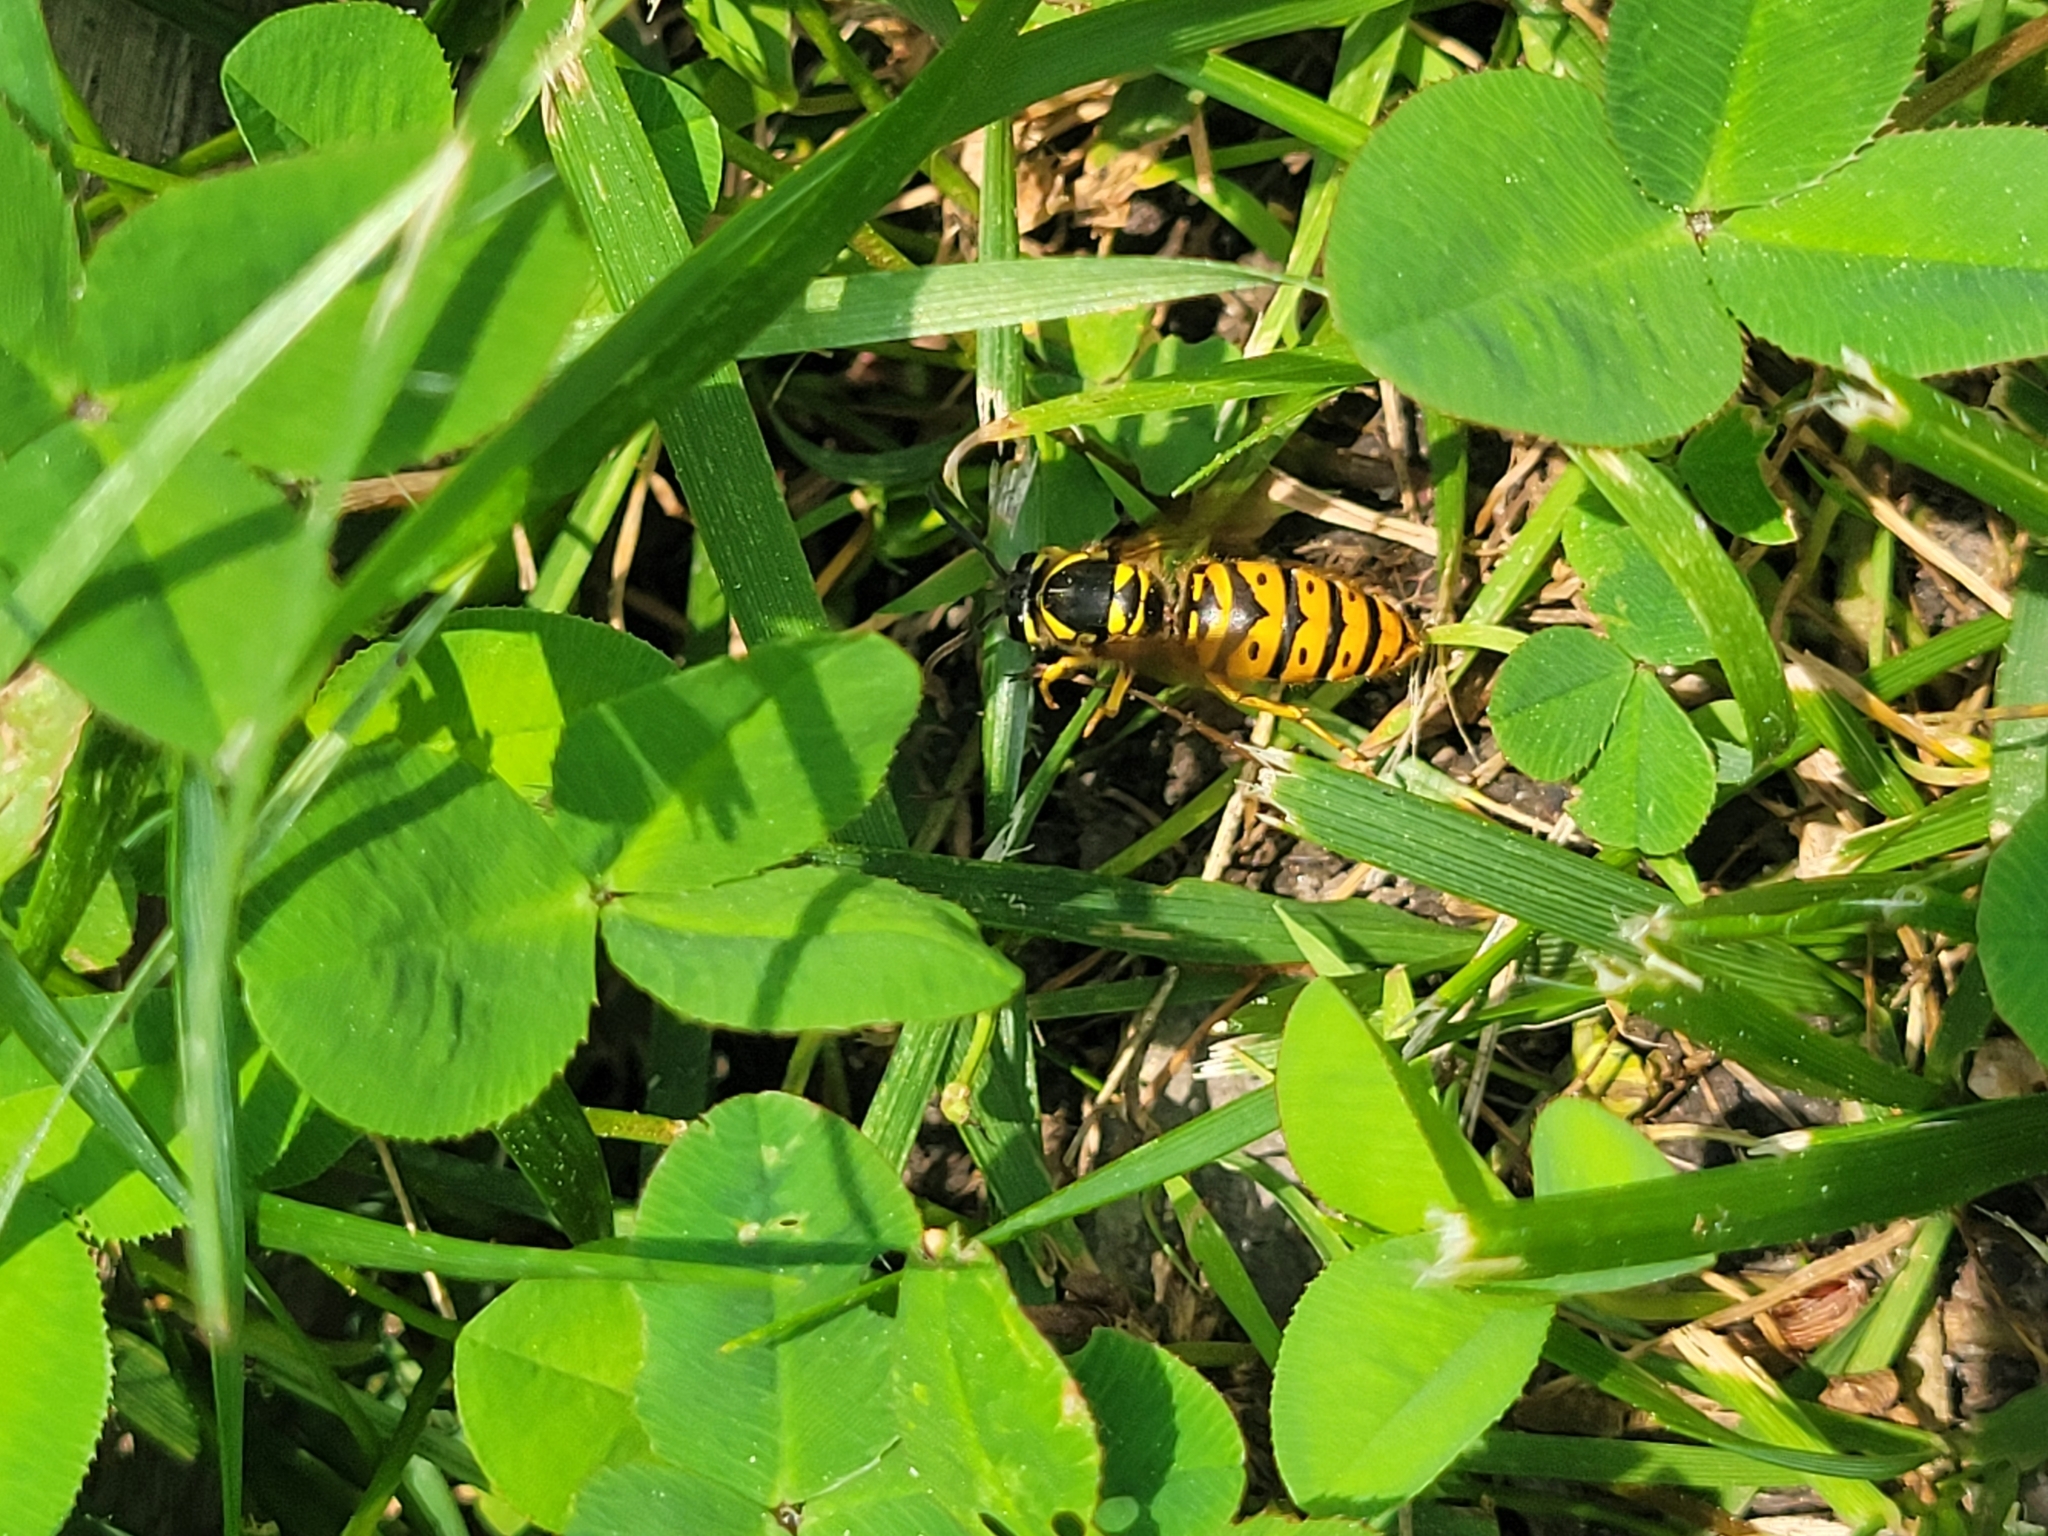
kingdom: Animalia
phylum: Arthropoda
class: Insecta
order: Hymenoptera
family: Vespidae
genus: Vespula
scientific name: Vespula maculifrons
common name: Eastern yellowjacket
